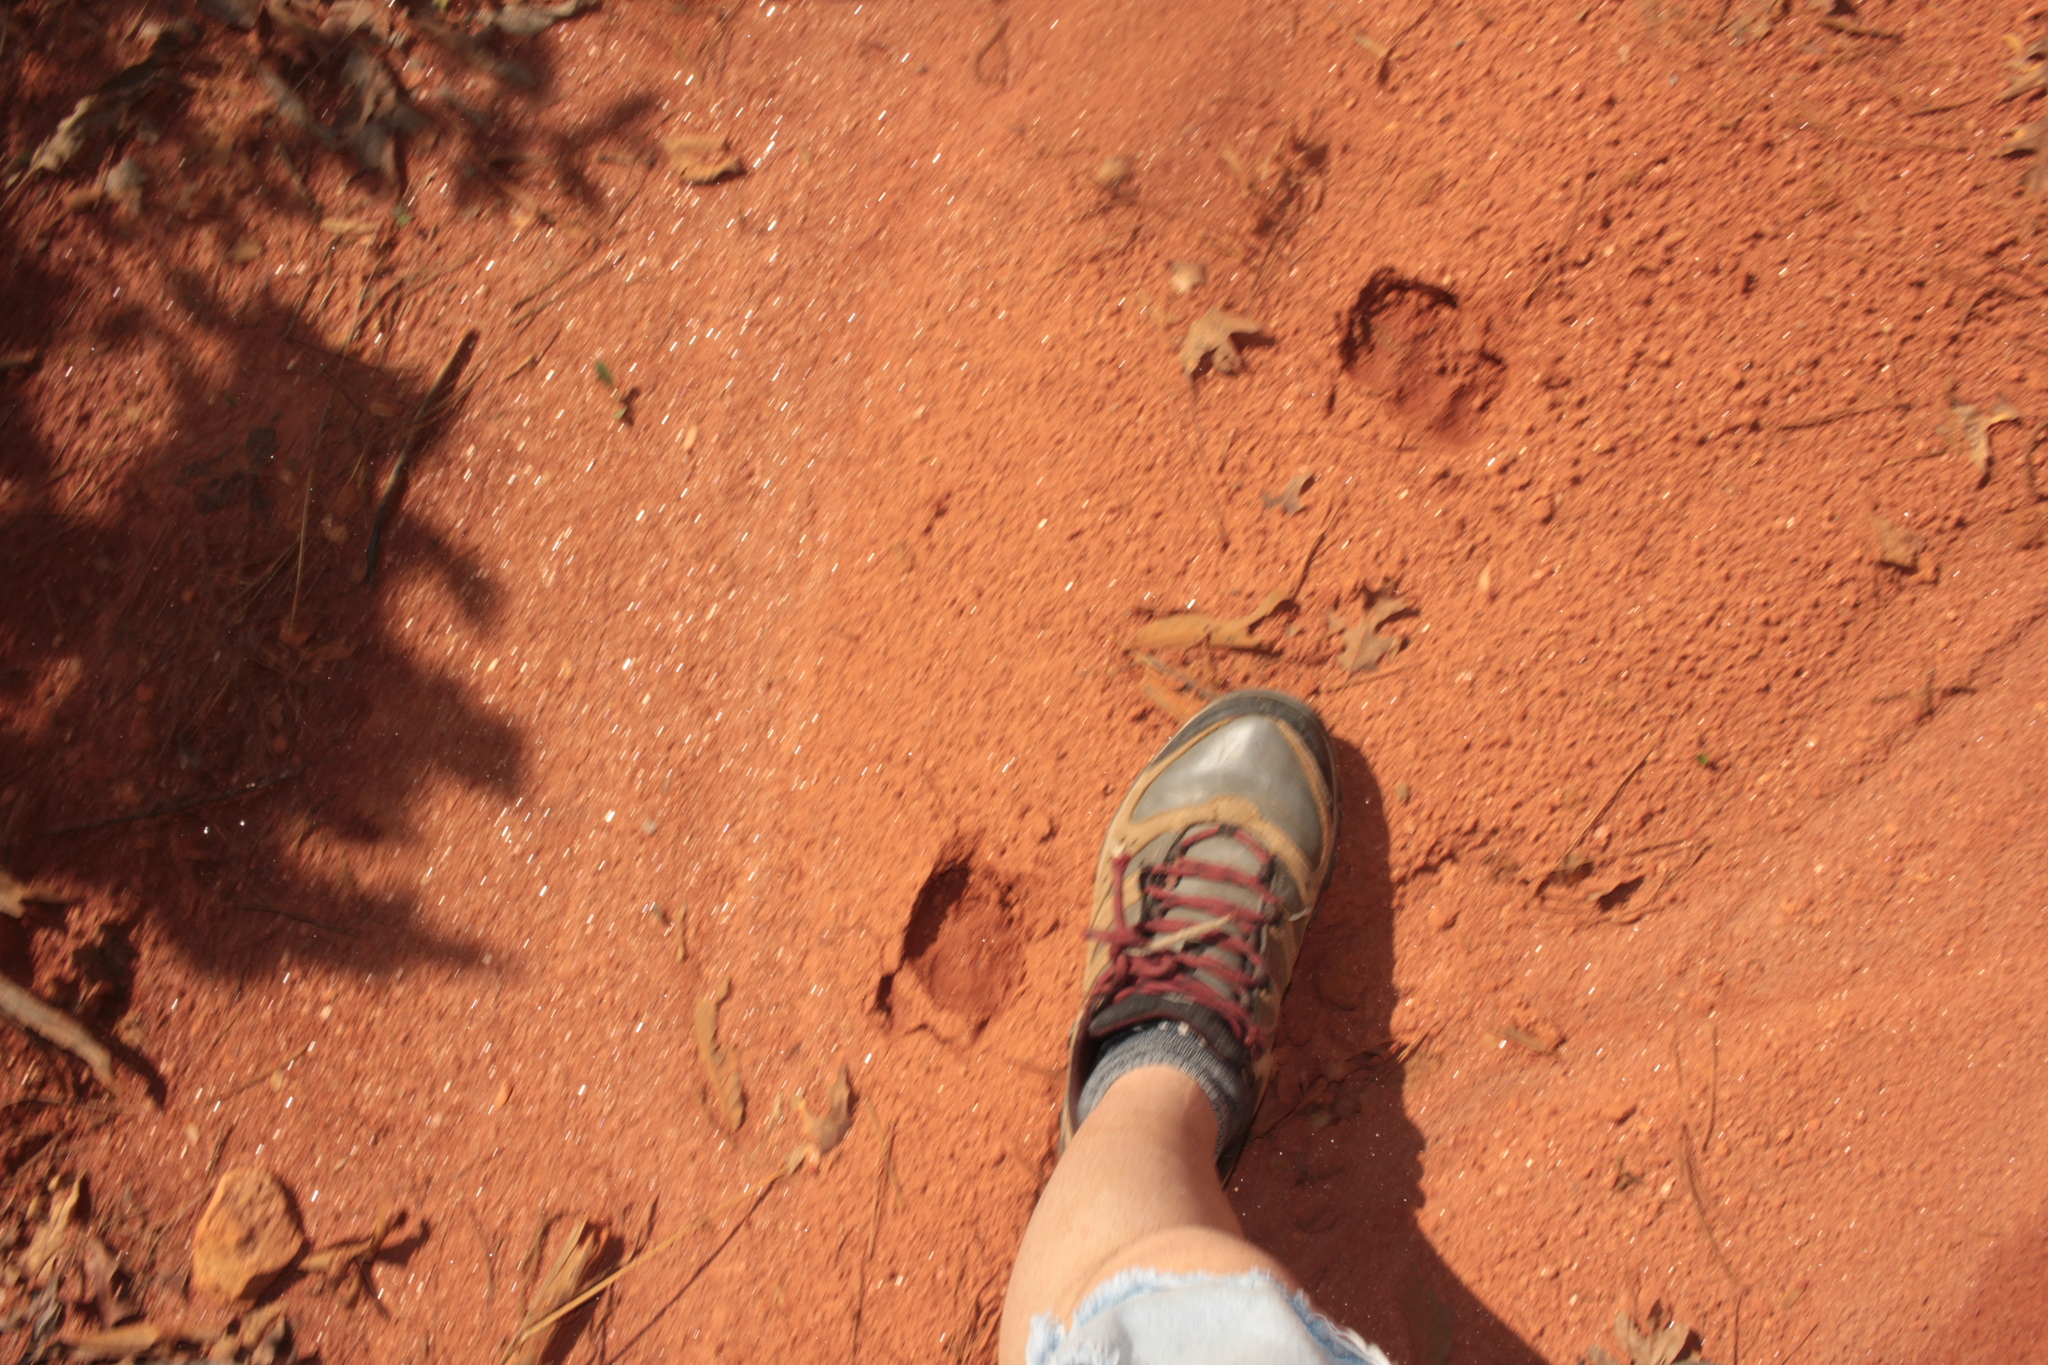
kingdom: Animalia
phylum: Chordata
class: Mammalia
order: Artiodactyla
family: Cervidae
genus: Odocoileus
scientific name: Odocoileus virginianus
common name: White-tailed deer
